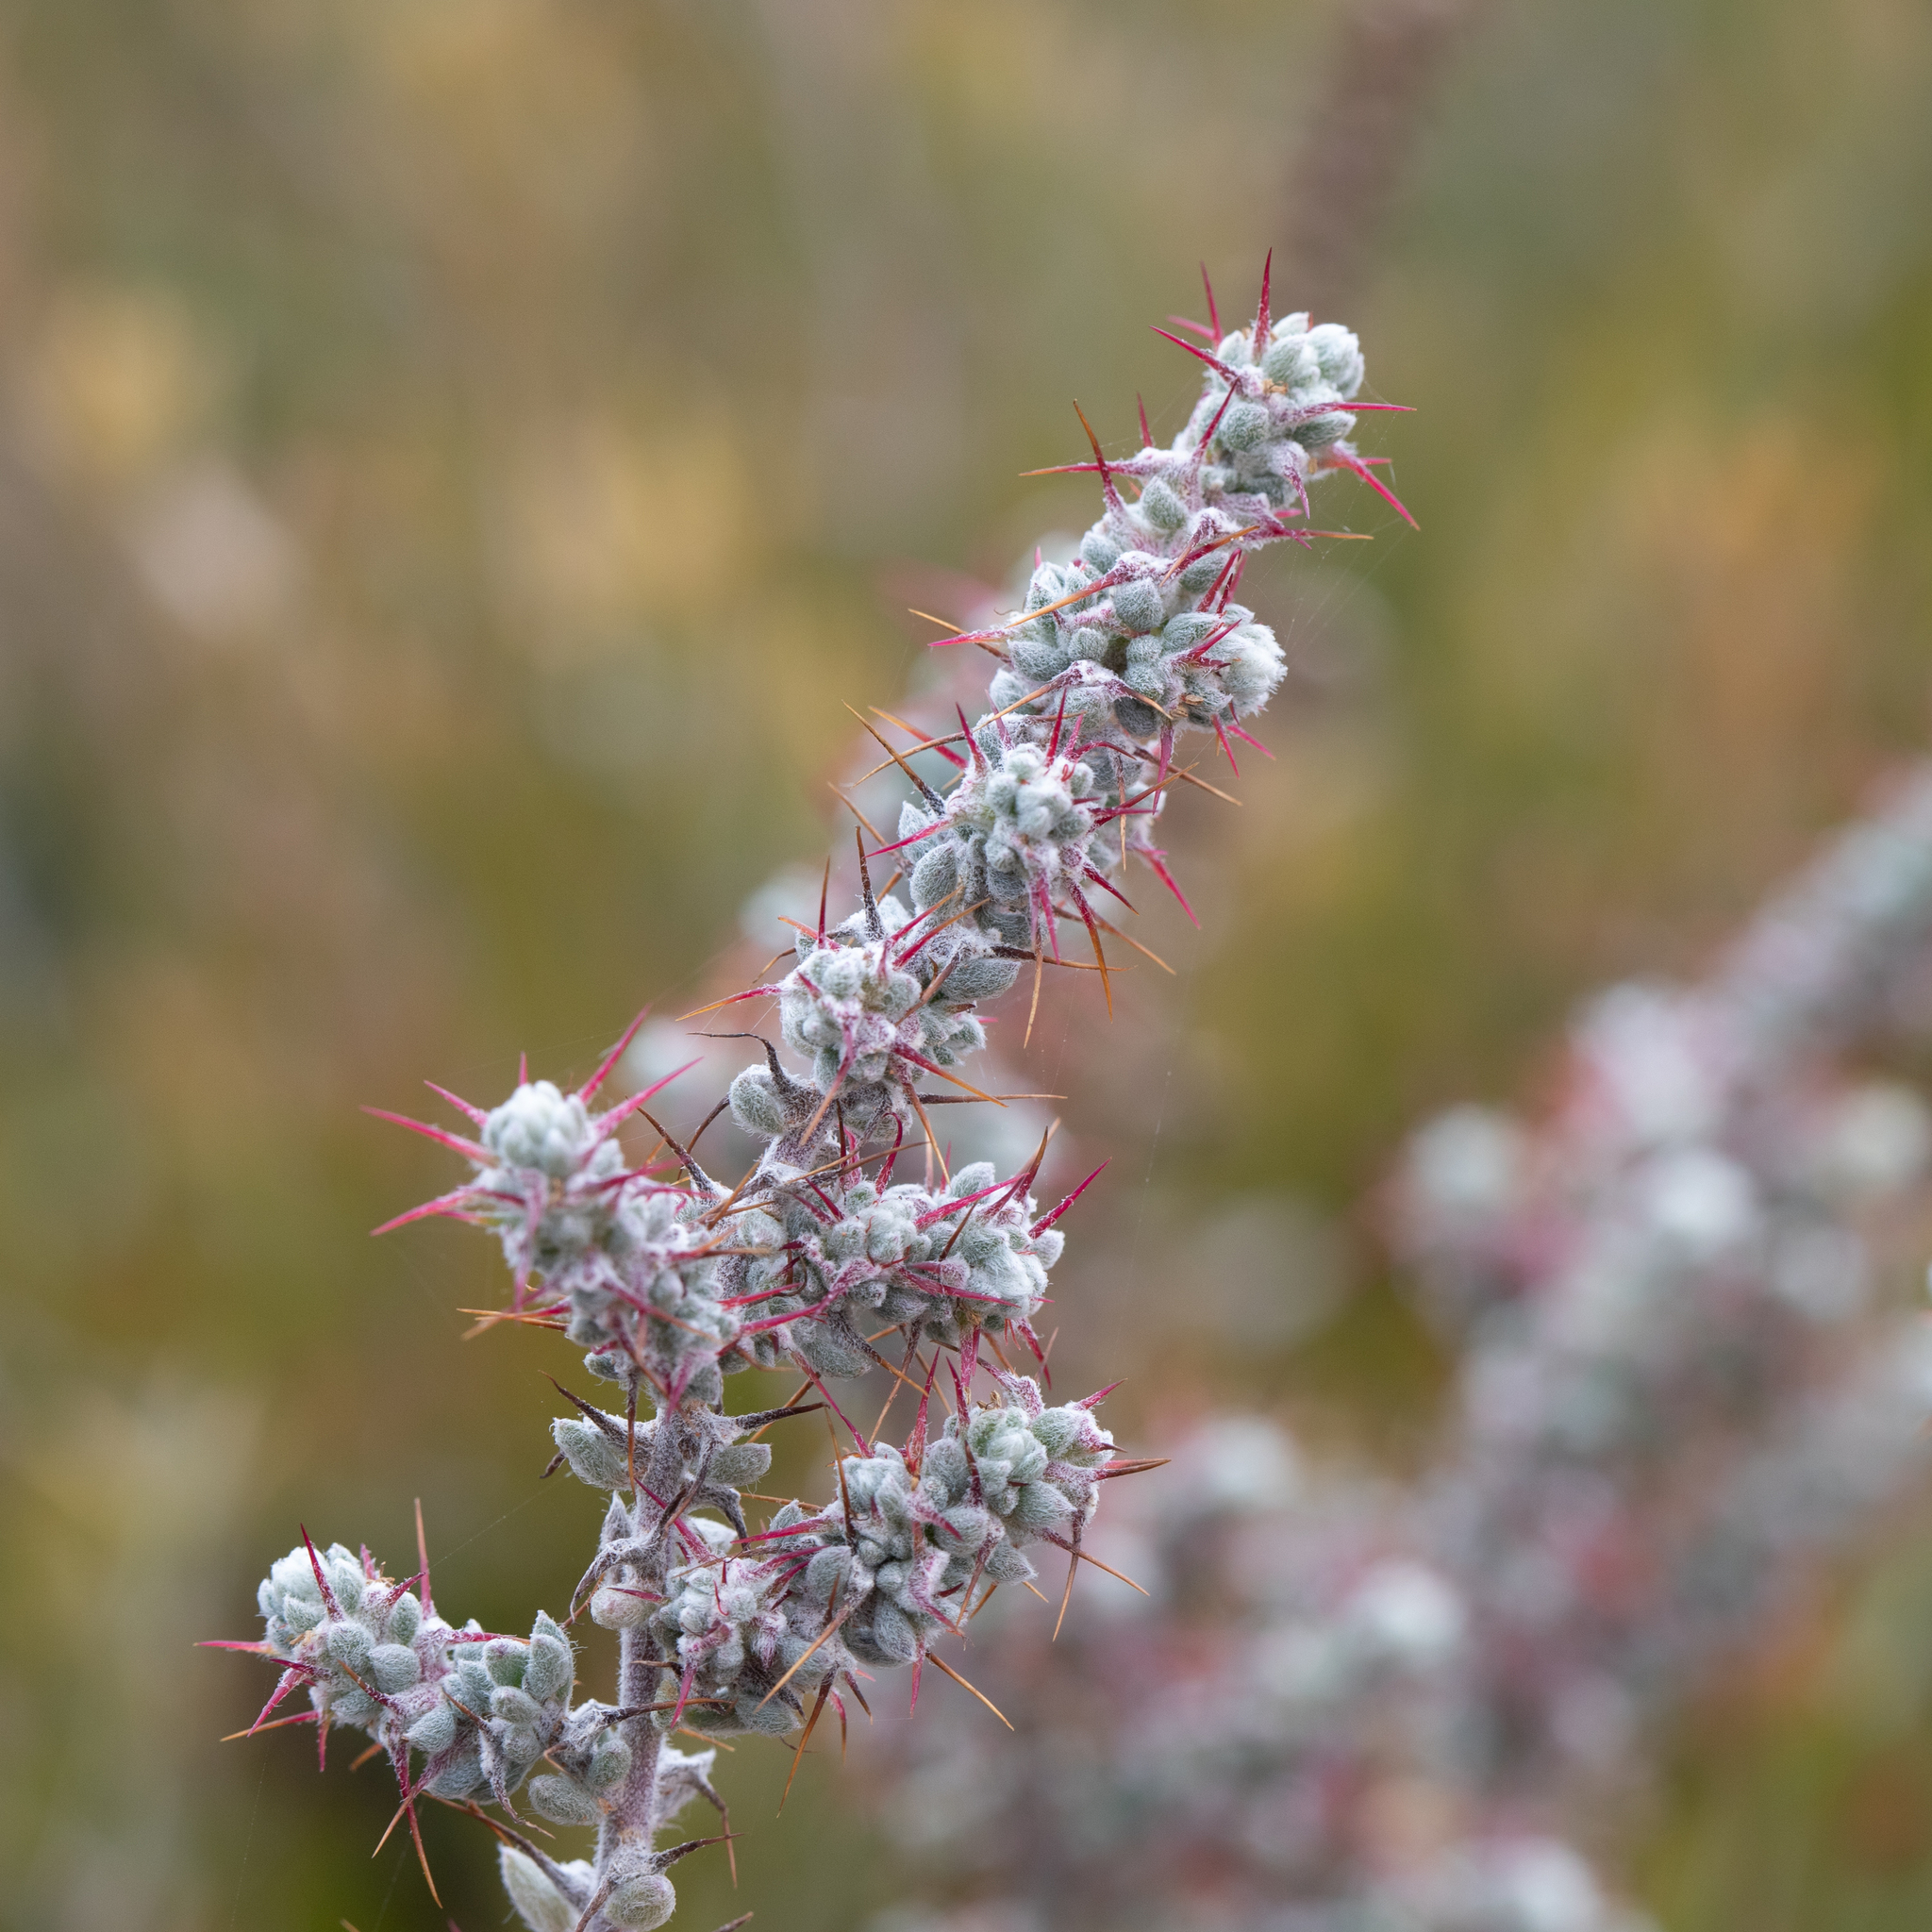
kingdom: Plantae
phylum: Tracheophyta
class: Magnoliopsida
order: Caryophyllales
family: Amaranthaceae
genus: Sclerolaena
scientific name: Sclerolaena obliquicuspis
